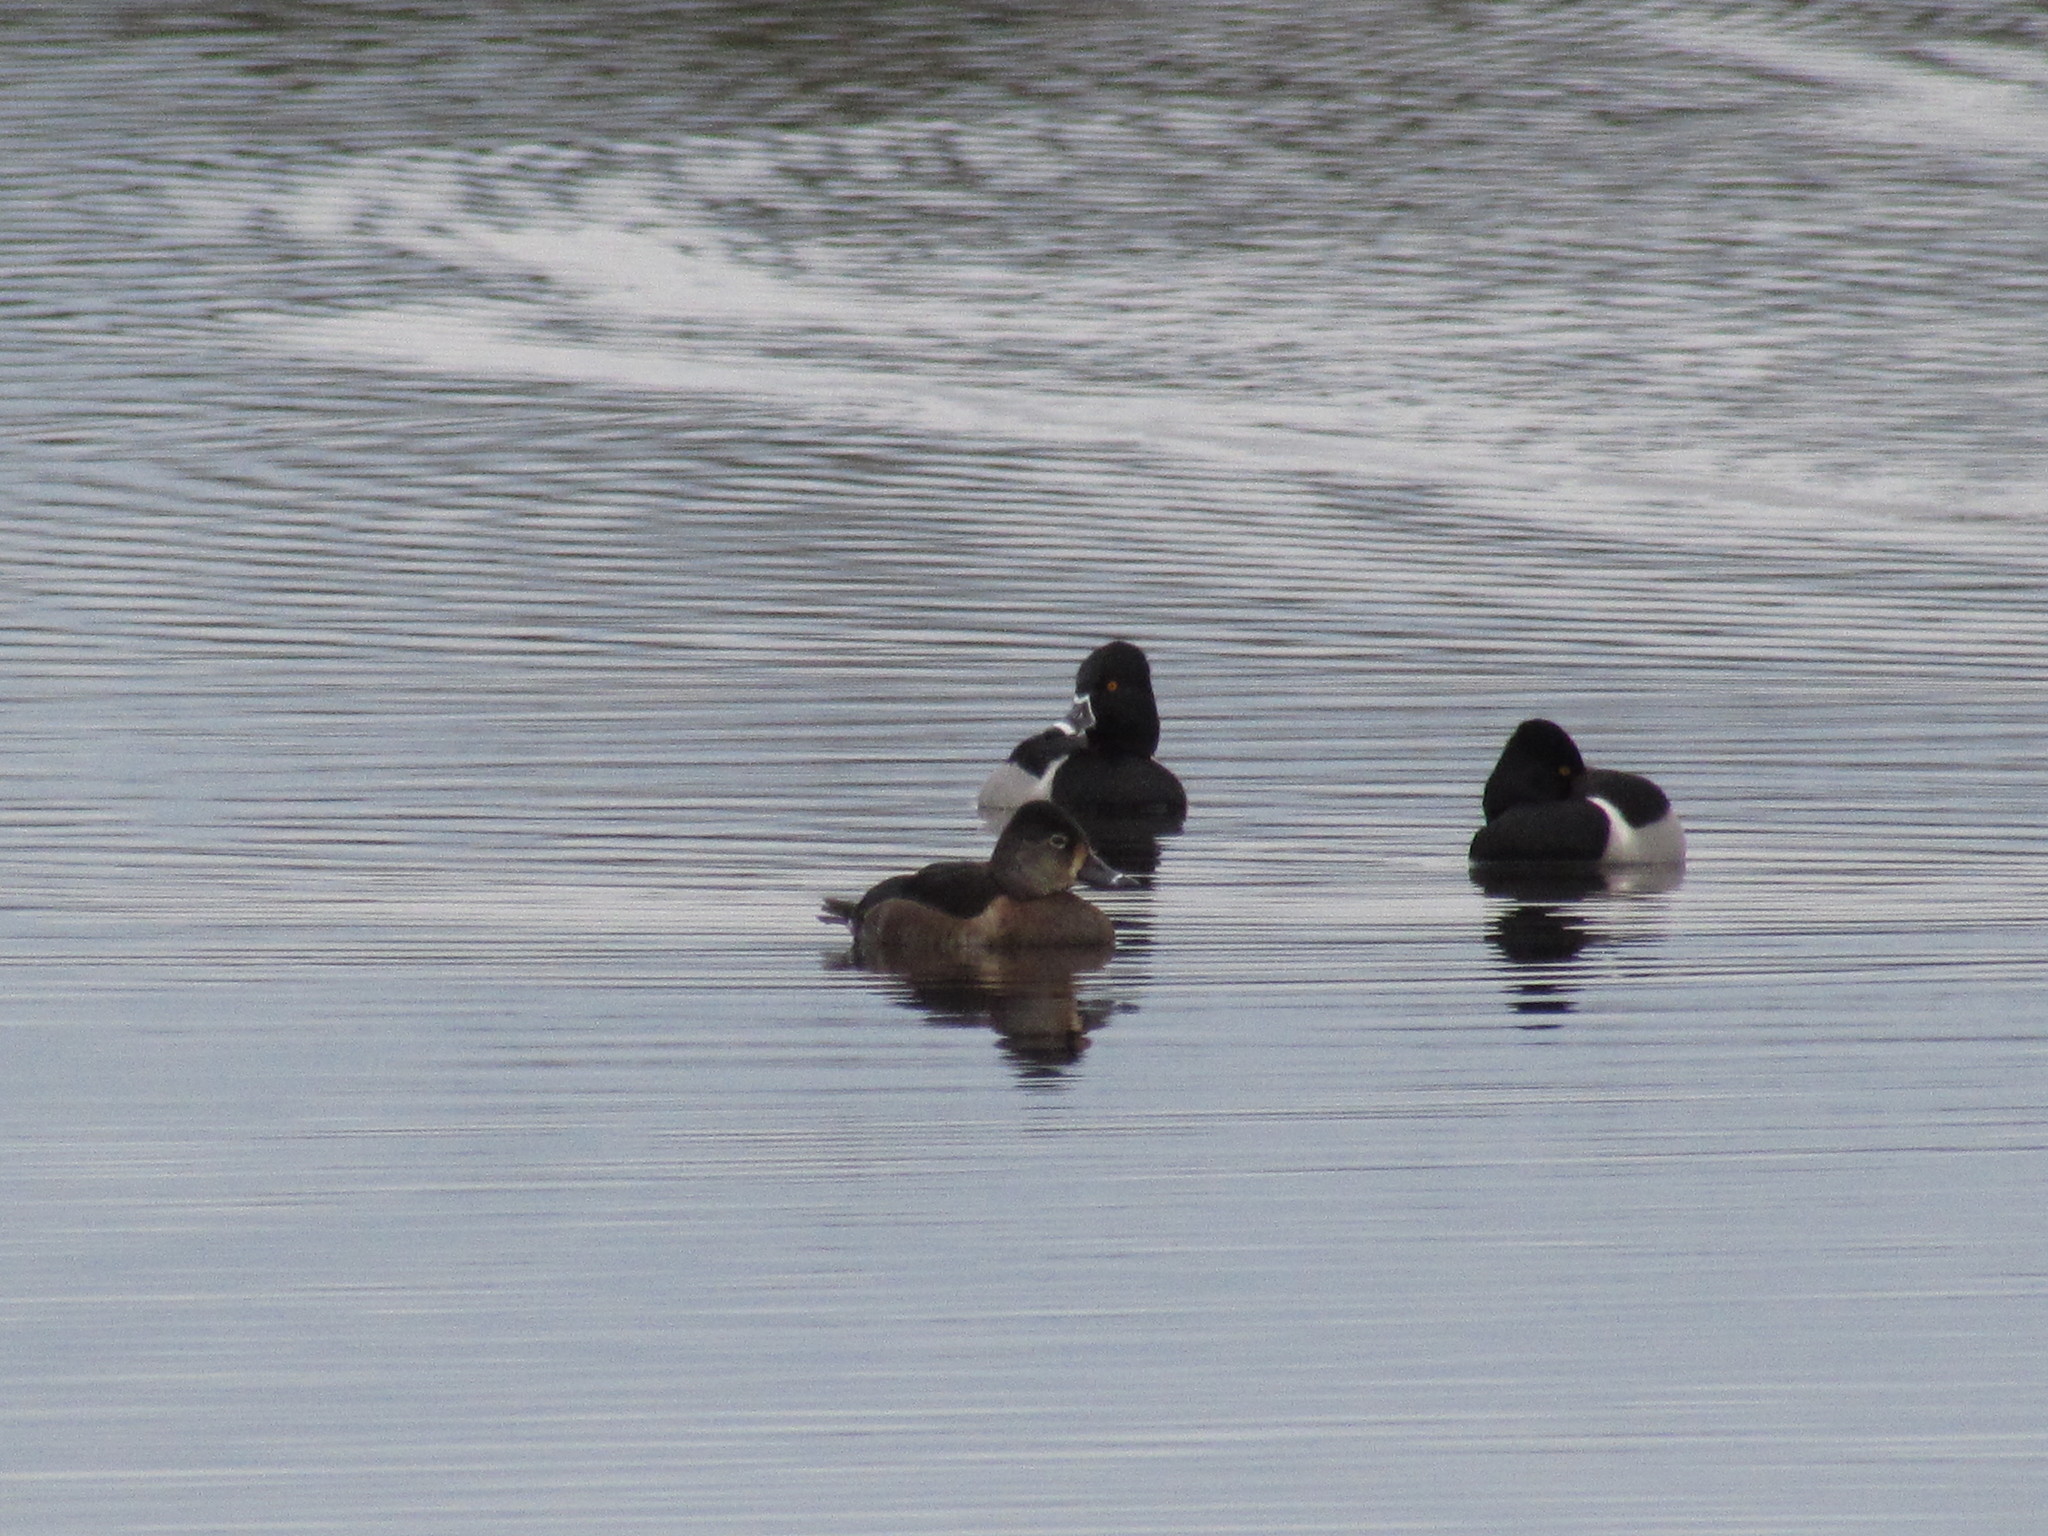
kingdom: Animalia
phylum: Chordata
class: Aves
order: Anseriformes
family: Anatidae
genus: Aythya
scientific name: Aythya collaris
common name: Ring-necked duck
